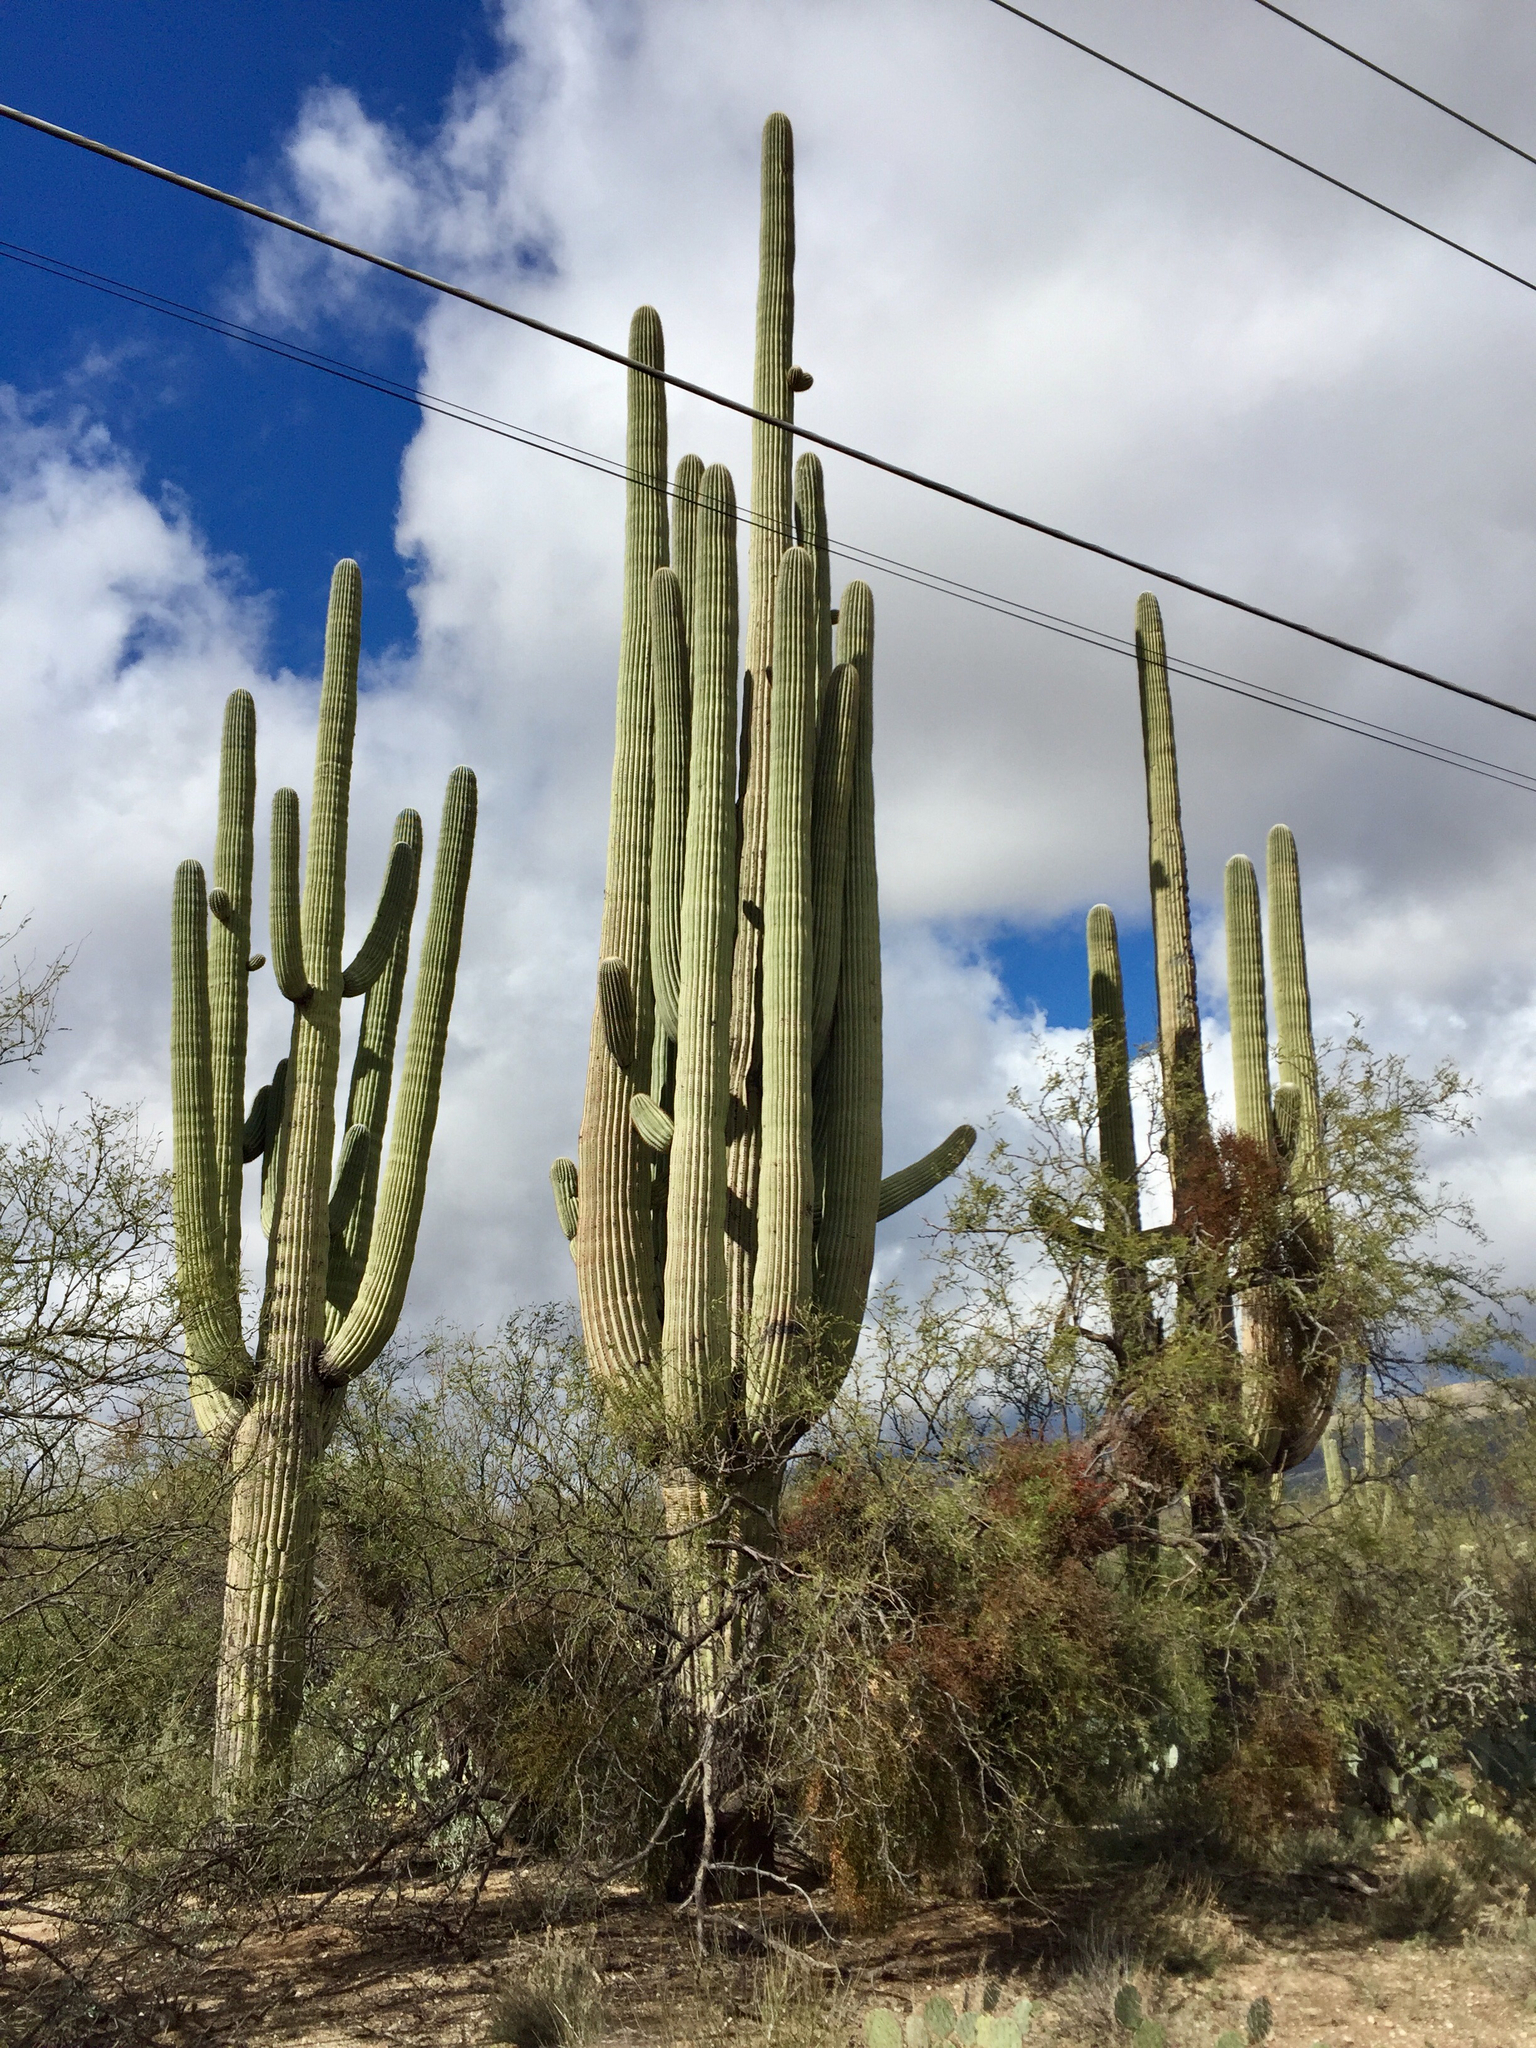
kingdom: Plantae
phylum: Tracheophyta
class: Magnoliopsida
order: Caryophyllales
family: Cactaceae
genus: Carnegiea
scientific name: Carnegiea gigantea
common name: Saguaro
